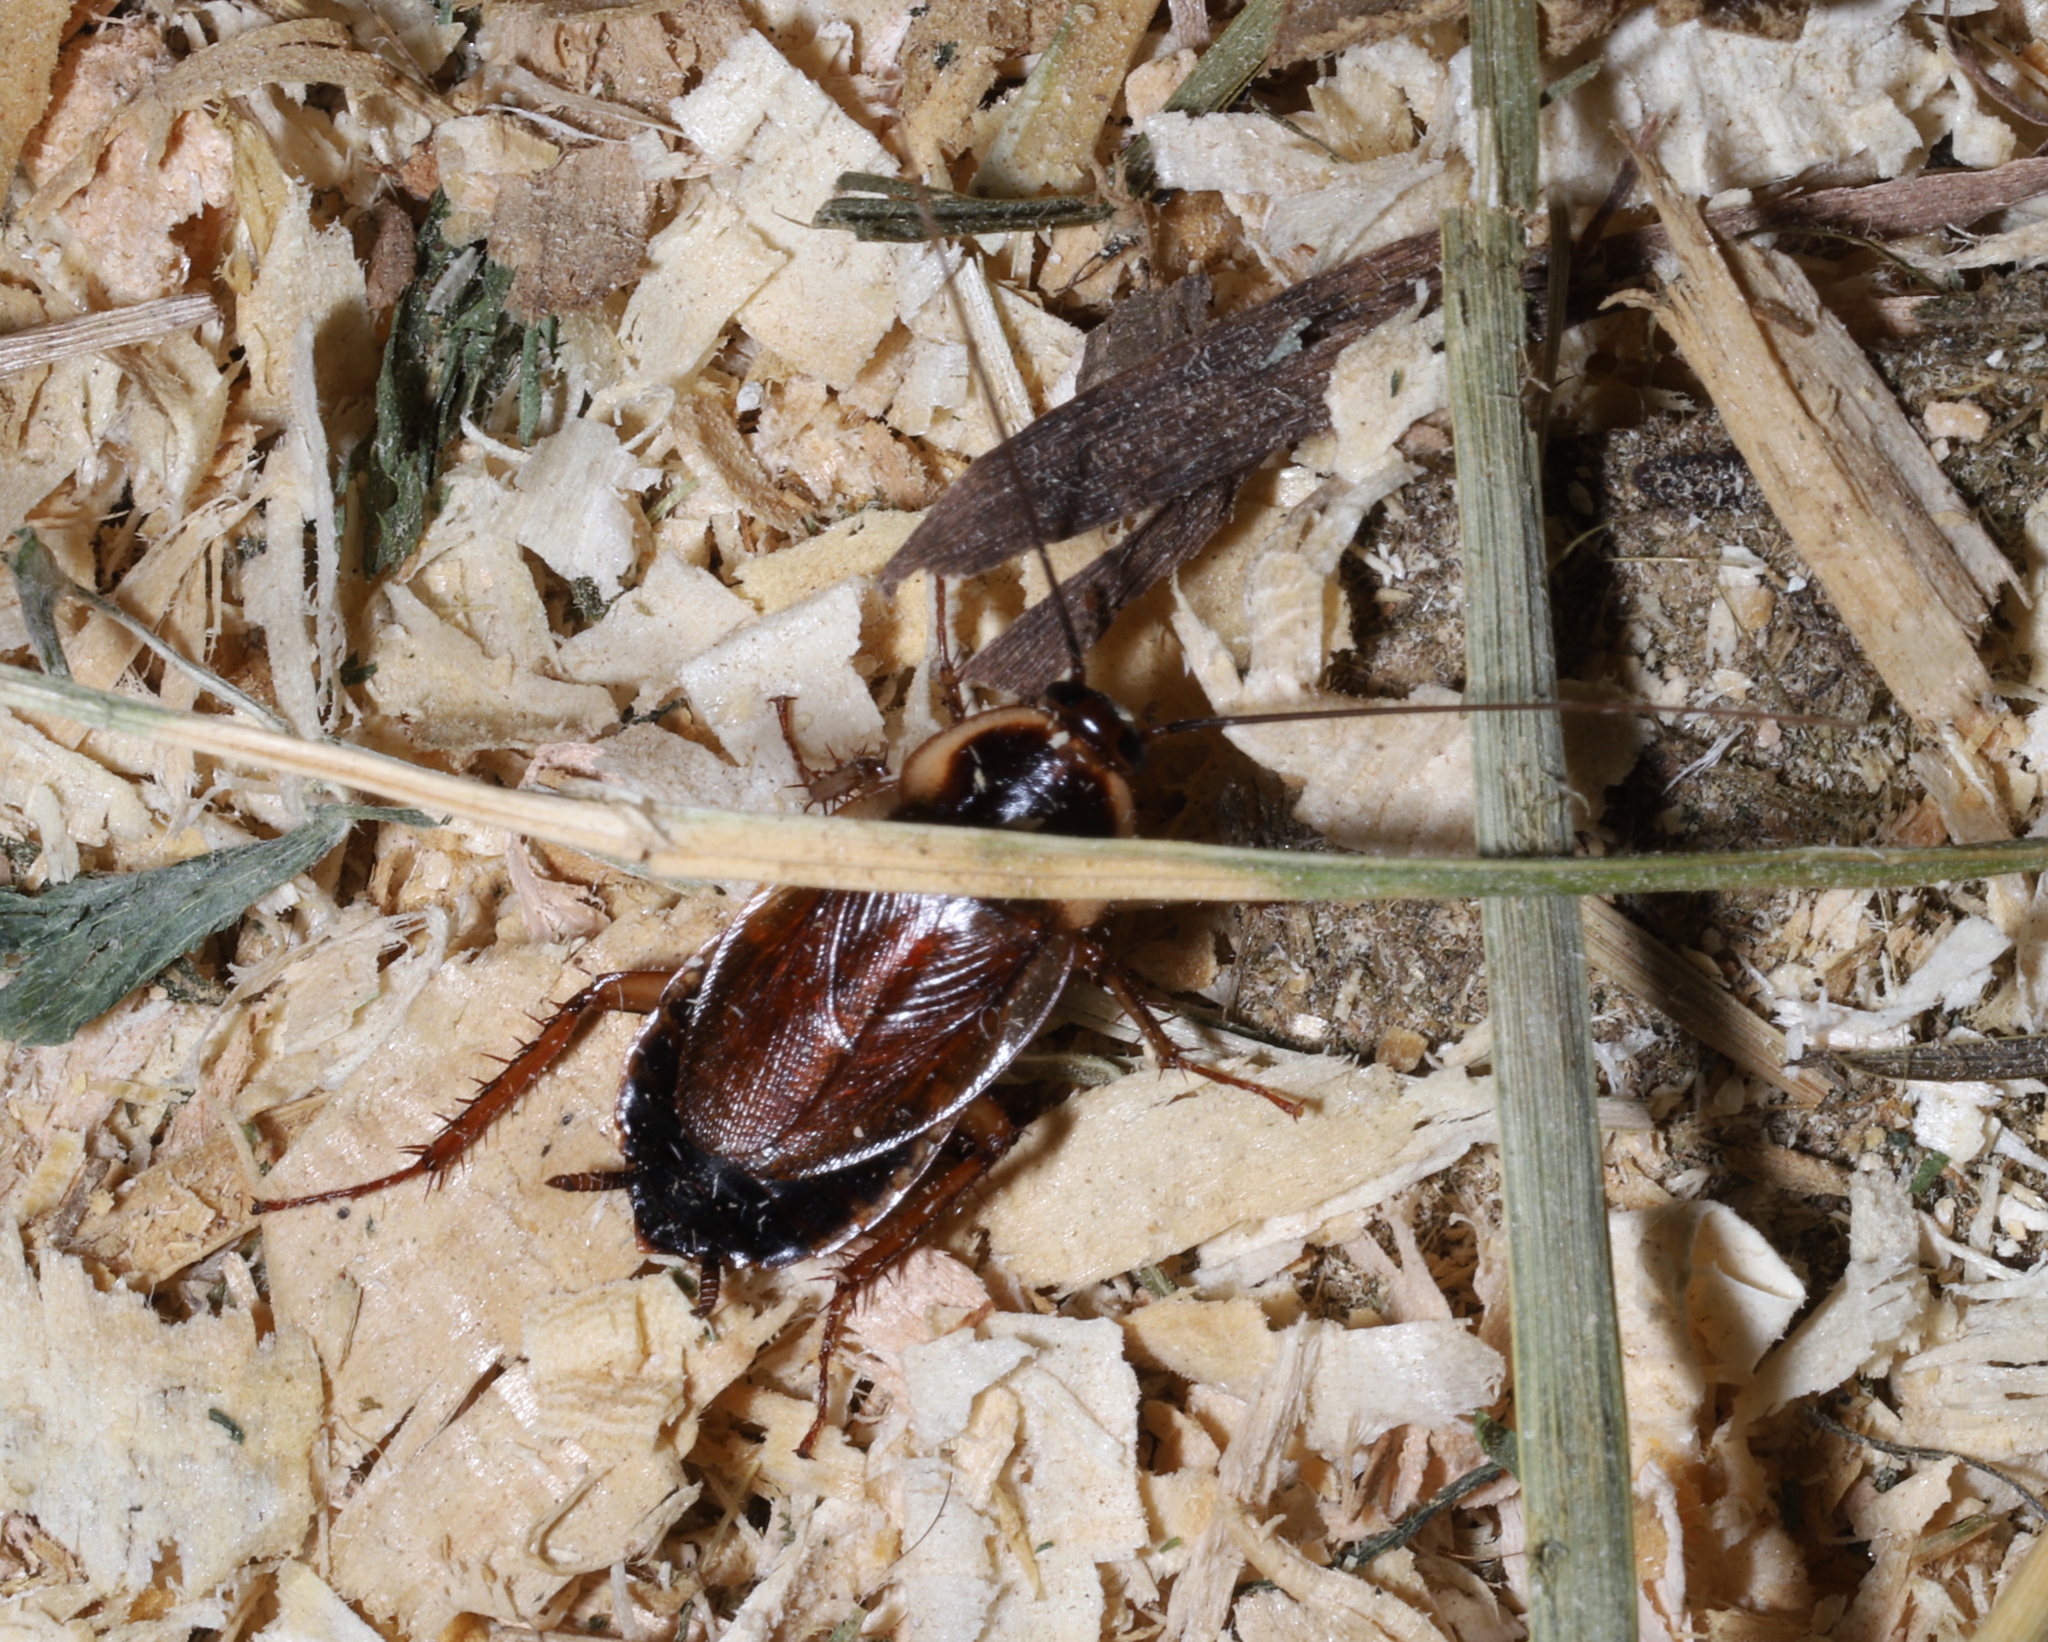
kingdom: Animalia
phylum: Arthropoda
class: Insecta
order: Blattodea
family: Ectobiidae
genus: Parcoblatta
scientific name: Parcoblatta pennsylvanica
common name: Pennsylvanian wood cockroach
